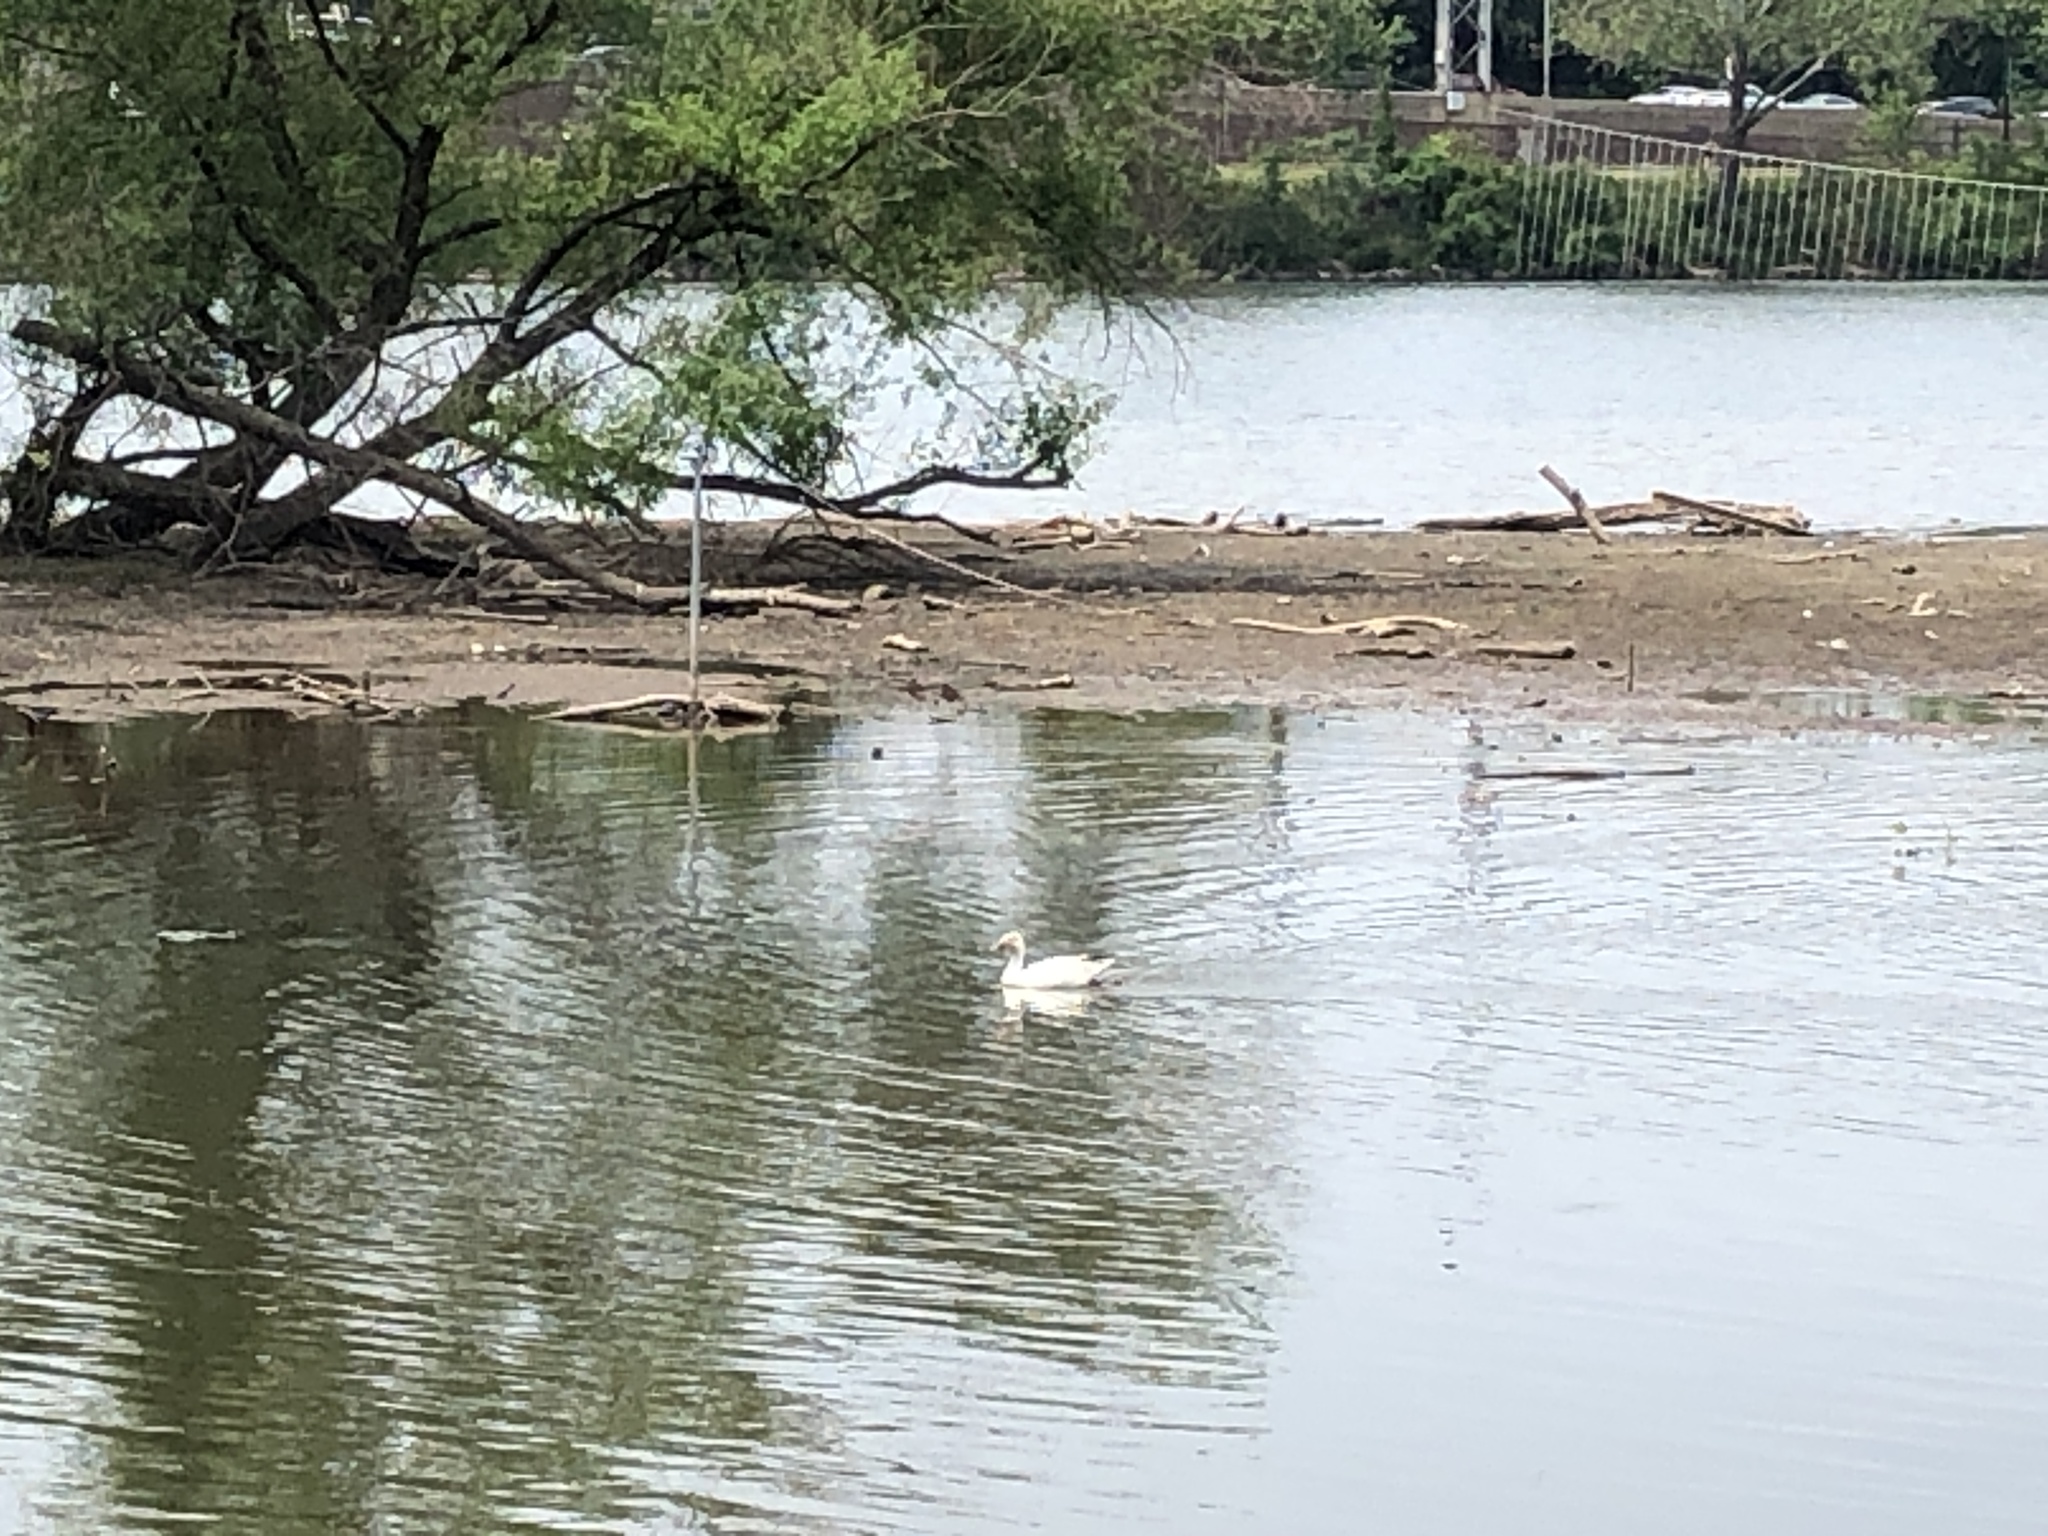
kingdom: Animalia
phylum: Chordata
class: Aves
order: Anseriformes
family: Anatidae
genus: Anser
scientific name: Anser caerulescens
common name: Snow goose
